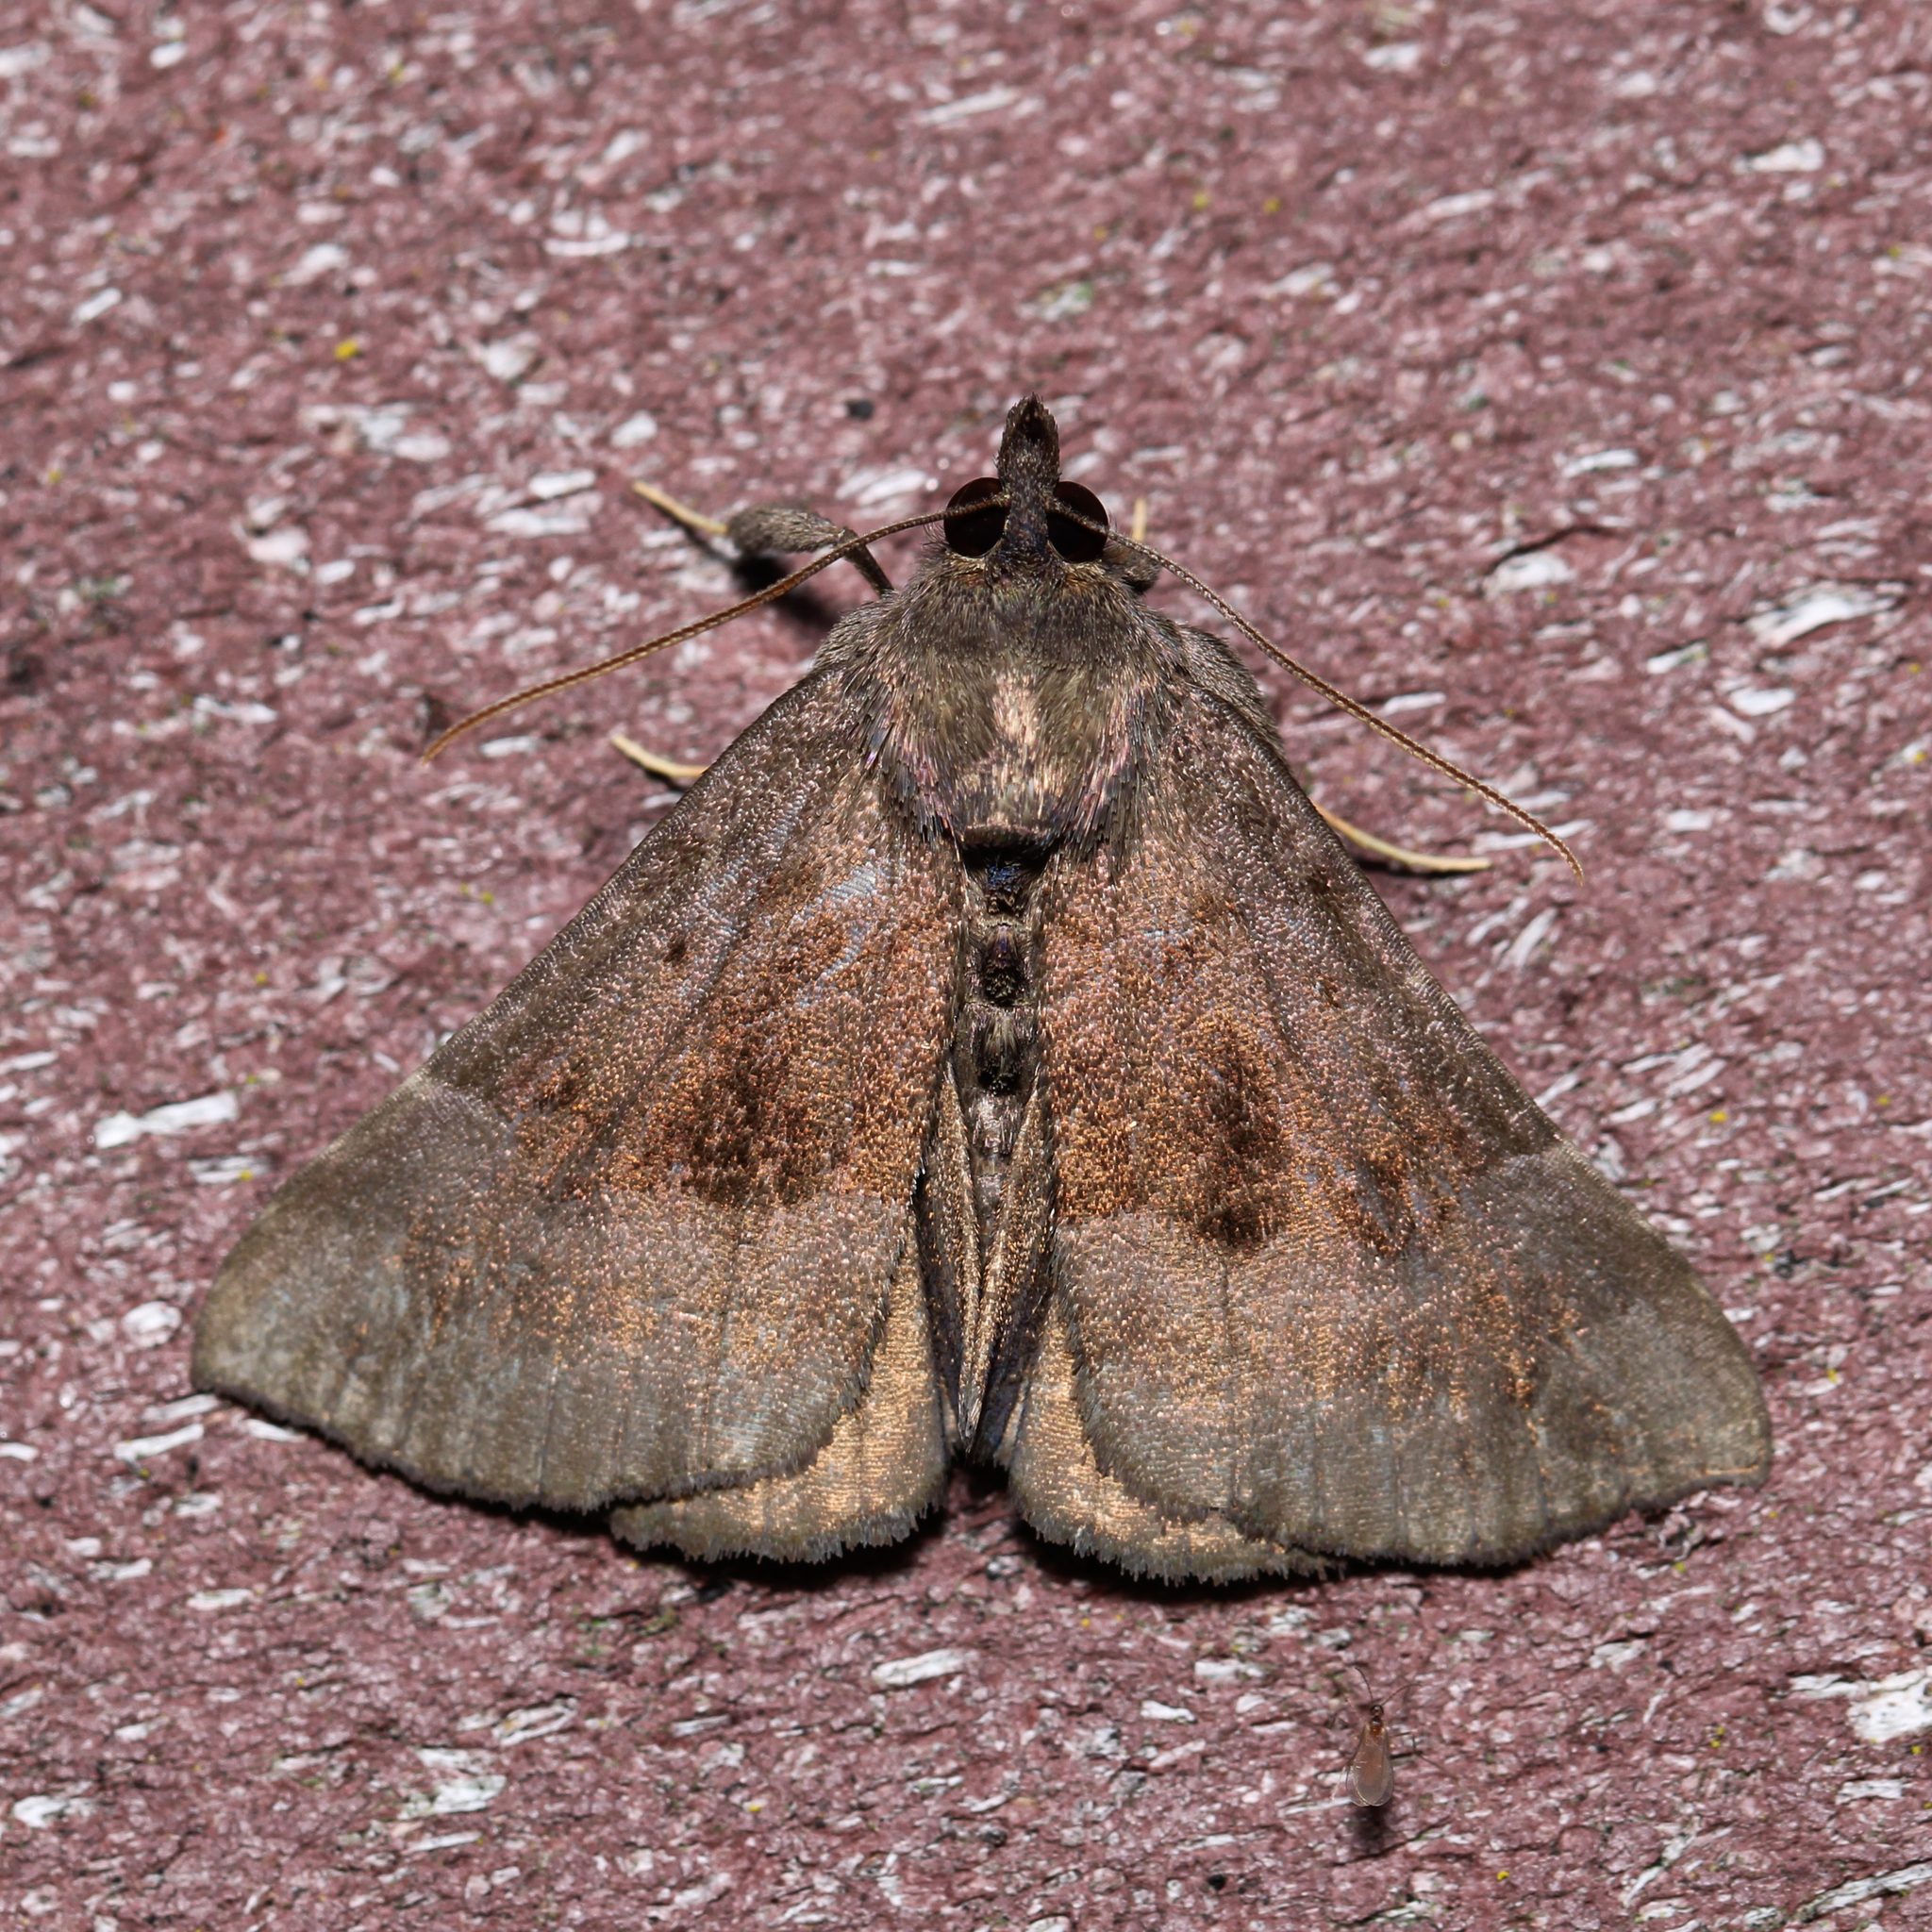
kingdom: Animalia
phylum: Arthropoda
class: Insecta
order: Lepidoptera
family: Erebidae
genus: Hypena
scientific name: Hypena madefactalis
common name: Gray-edged snout
